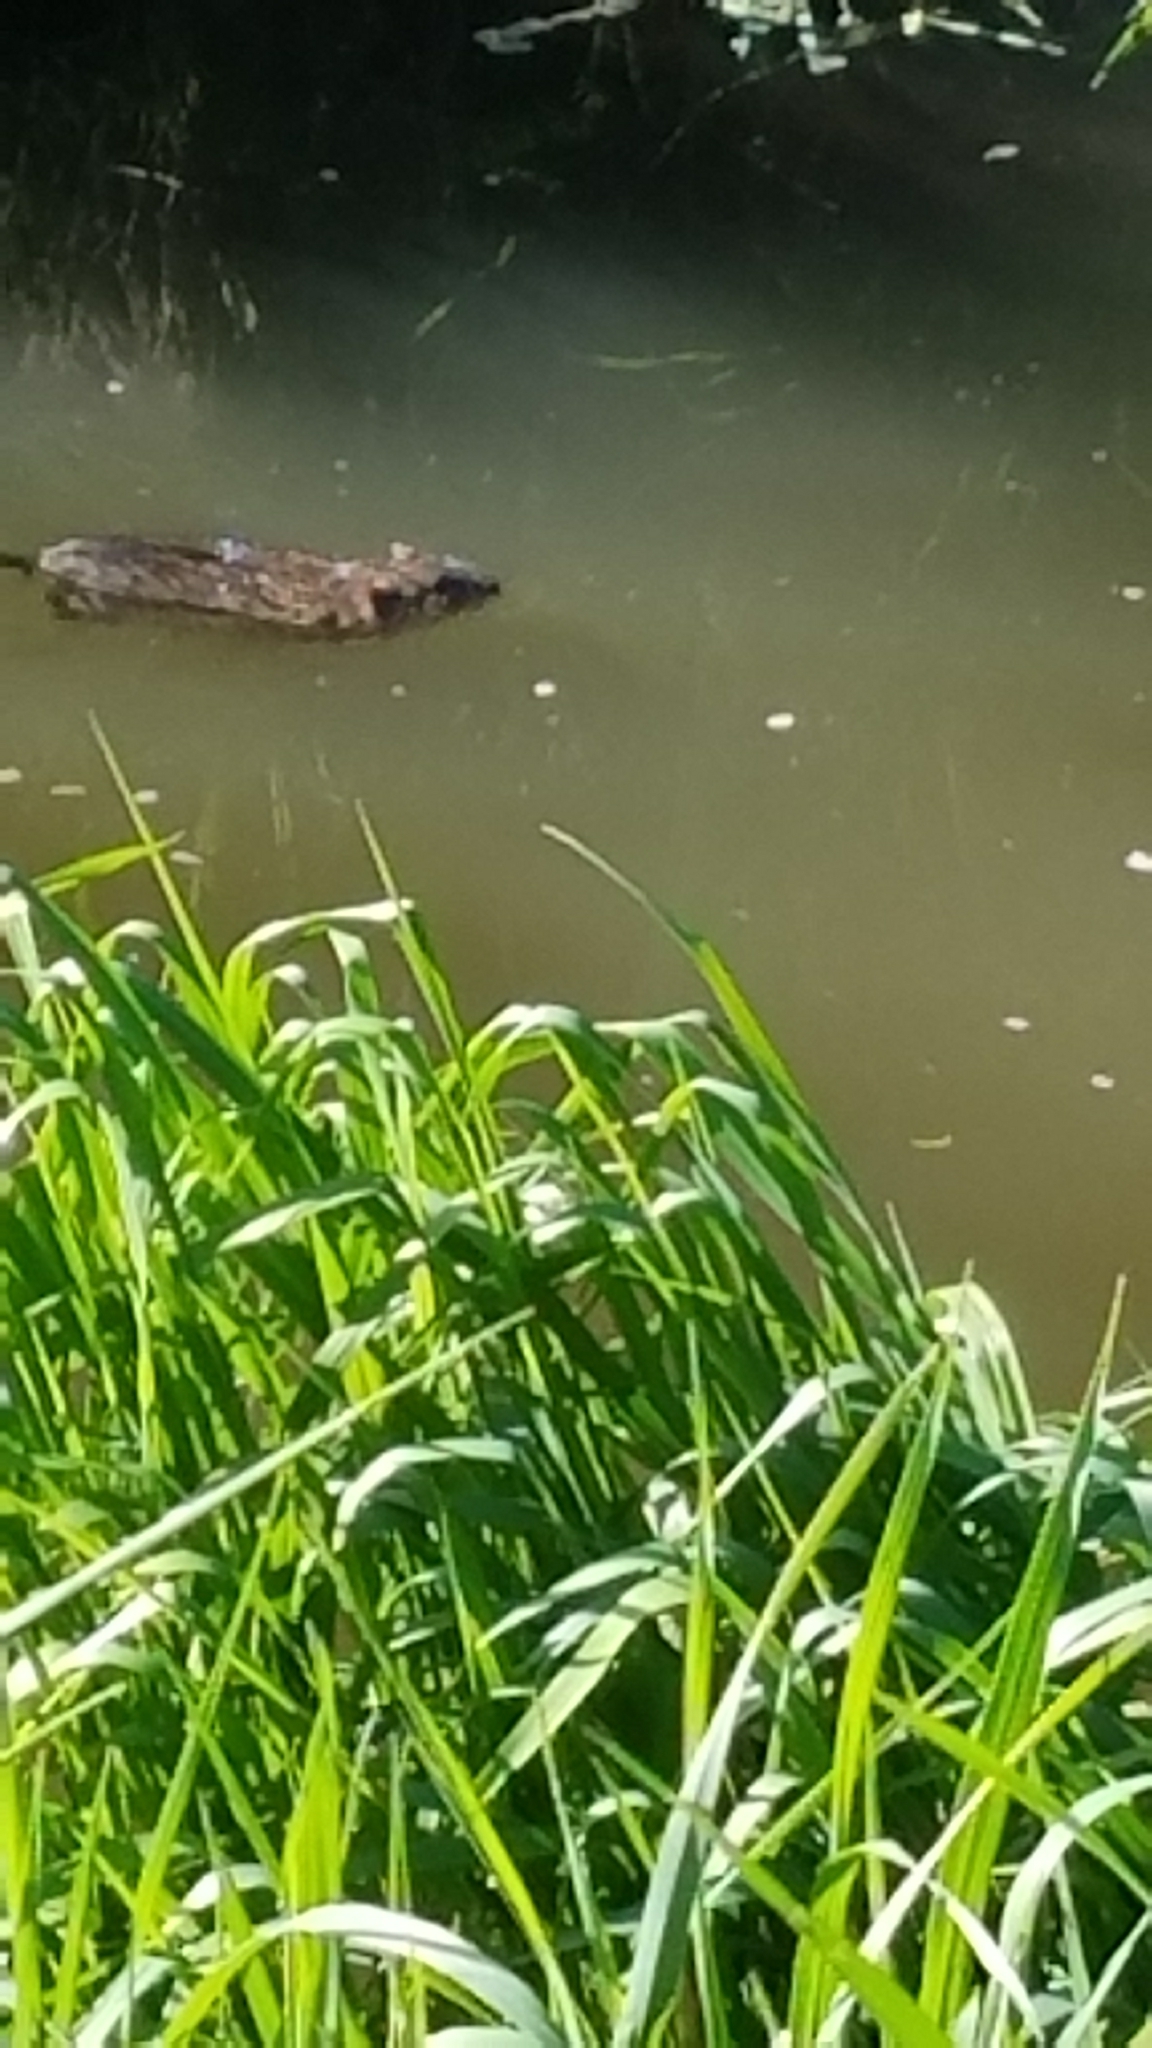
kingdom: Animalia
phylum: Chordata
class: Mammalia
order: Rodentia
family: Cricetidae
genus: Ondatra
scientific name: Ondatra zibethicus
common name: Muskrat
